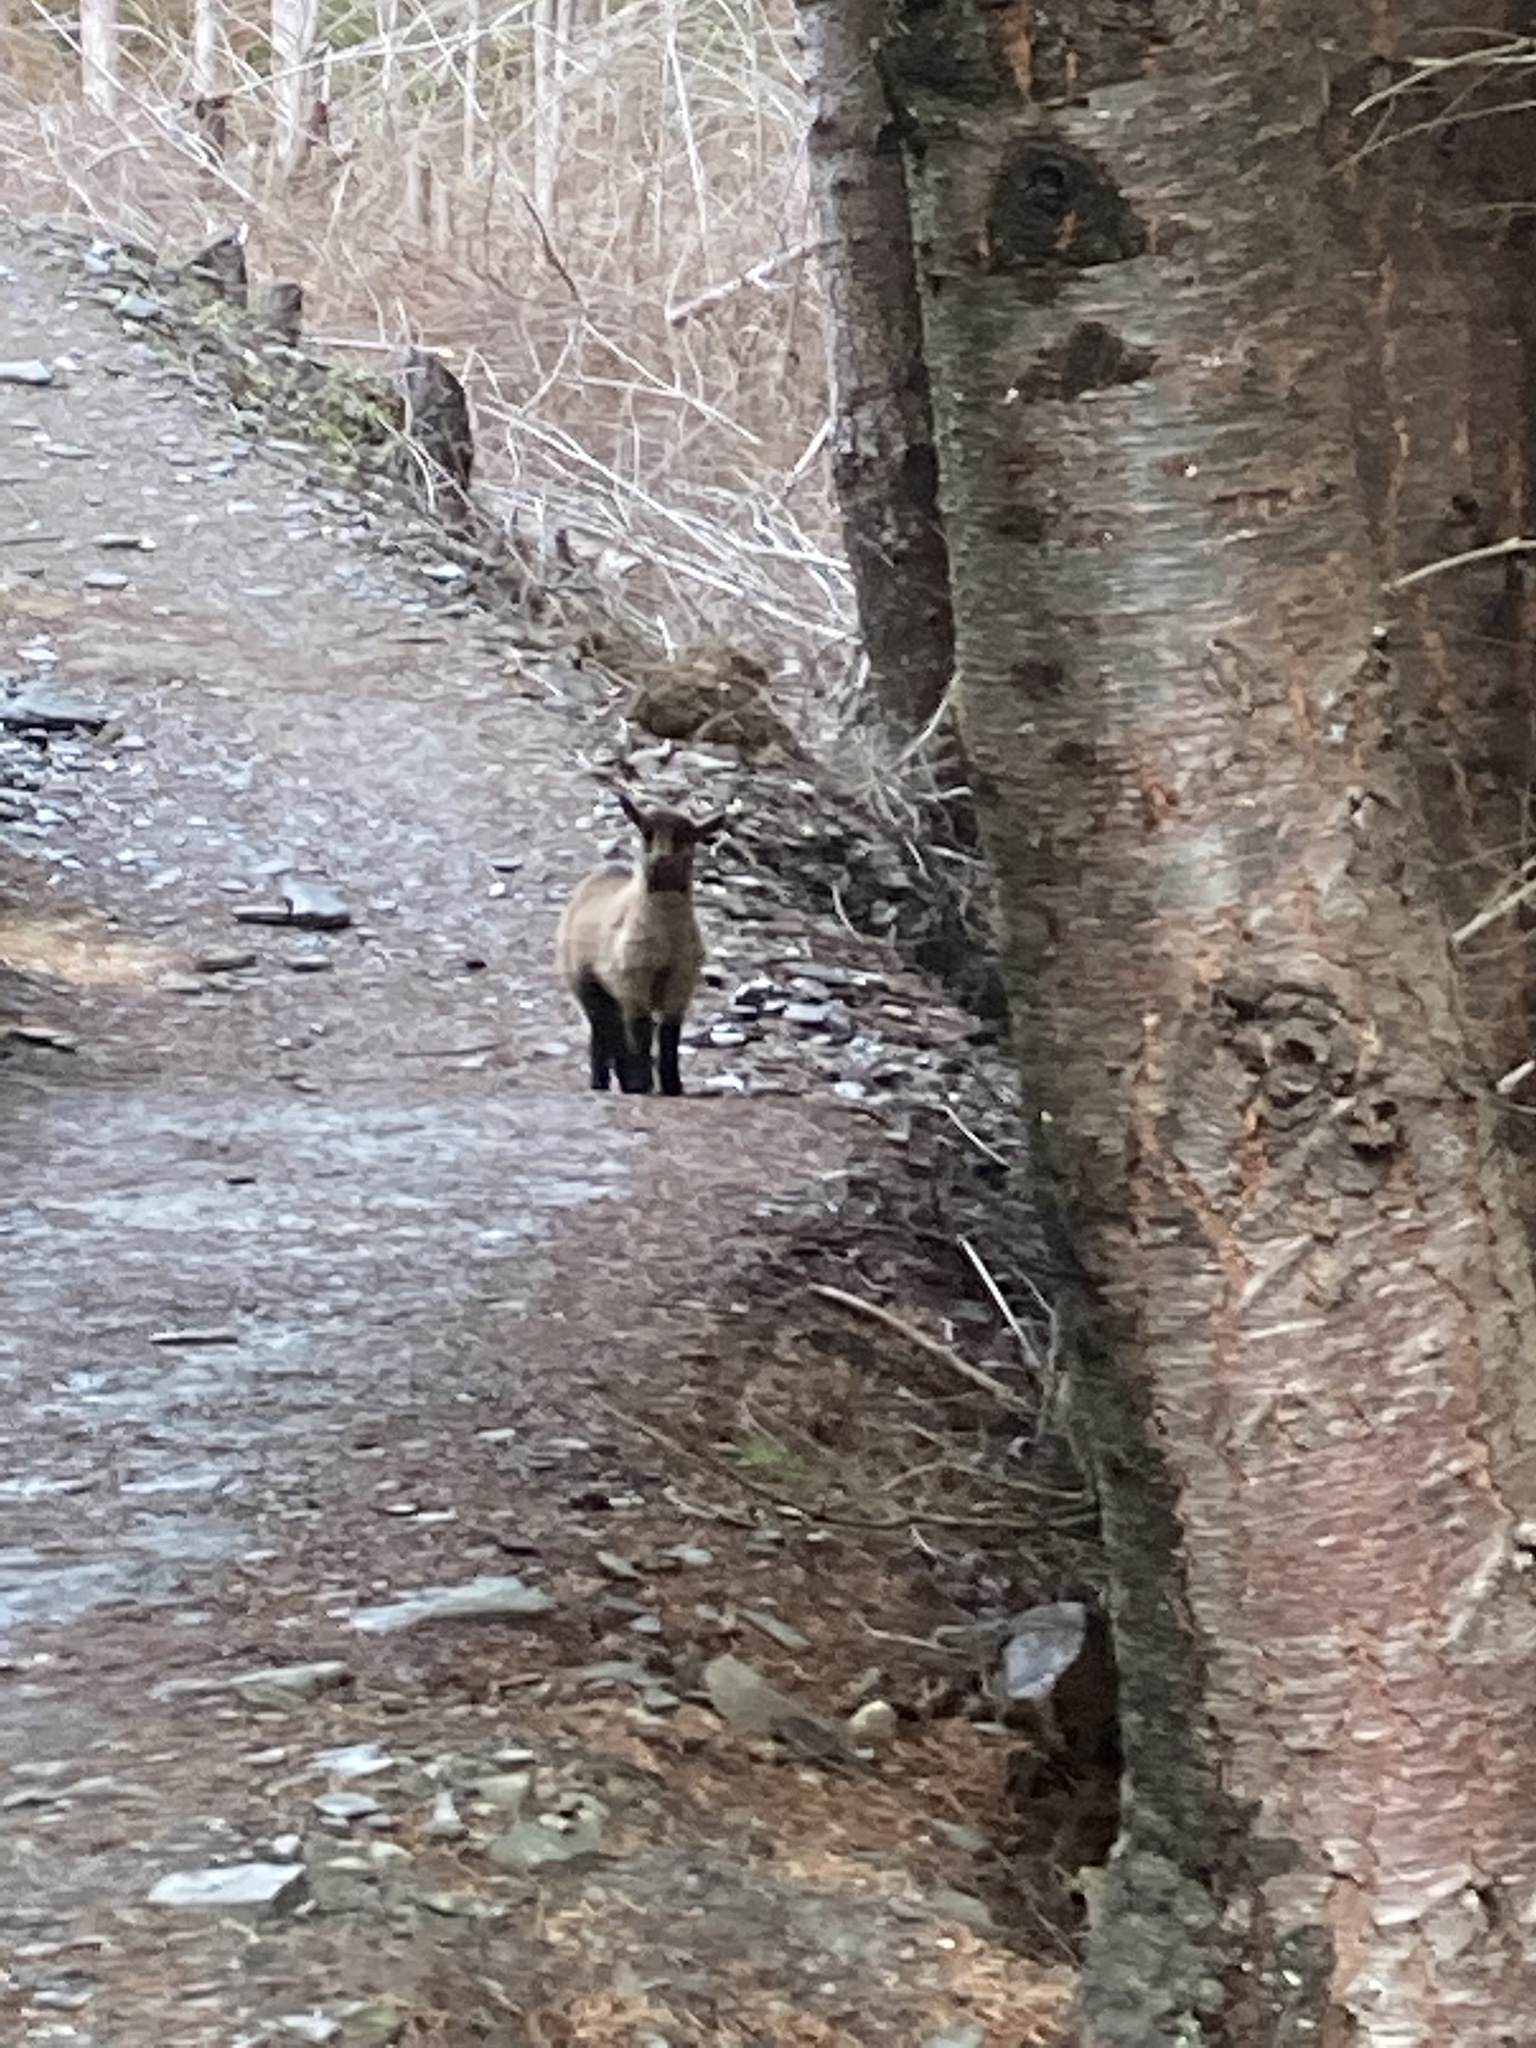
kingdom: Animalia
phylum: Chordata
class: Mammalia
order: Artiodactyla
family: Bovidae
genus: Capra
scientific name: Capra hircus
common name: Domestic goat
